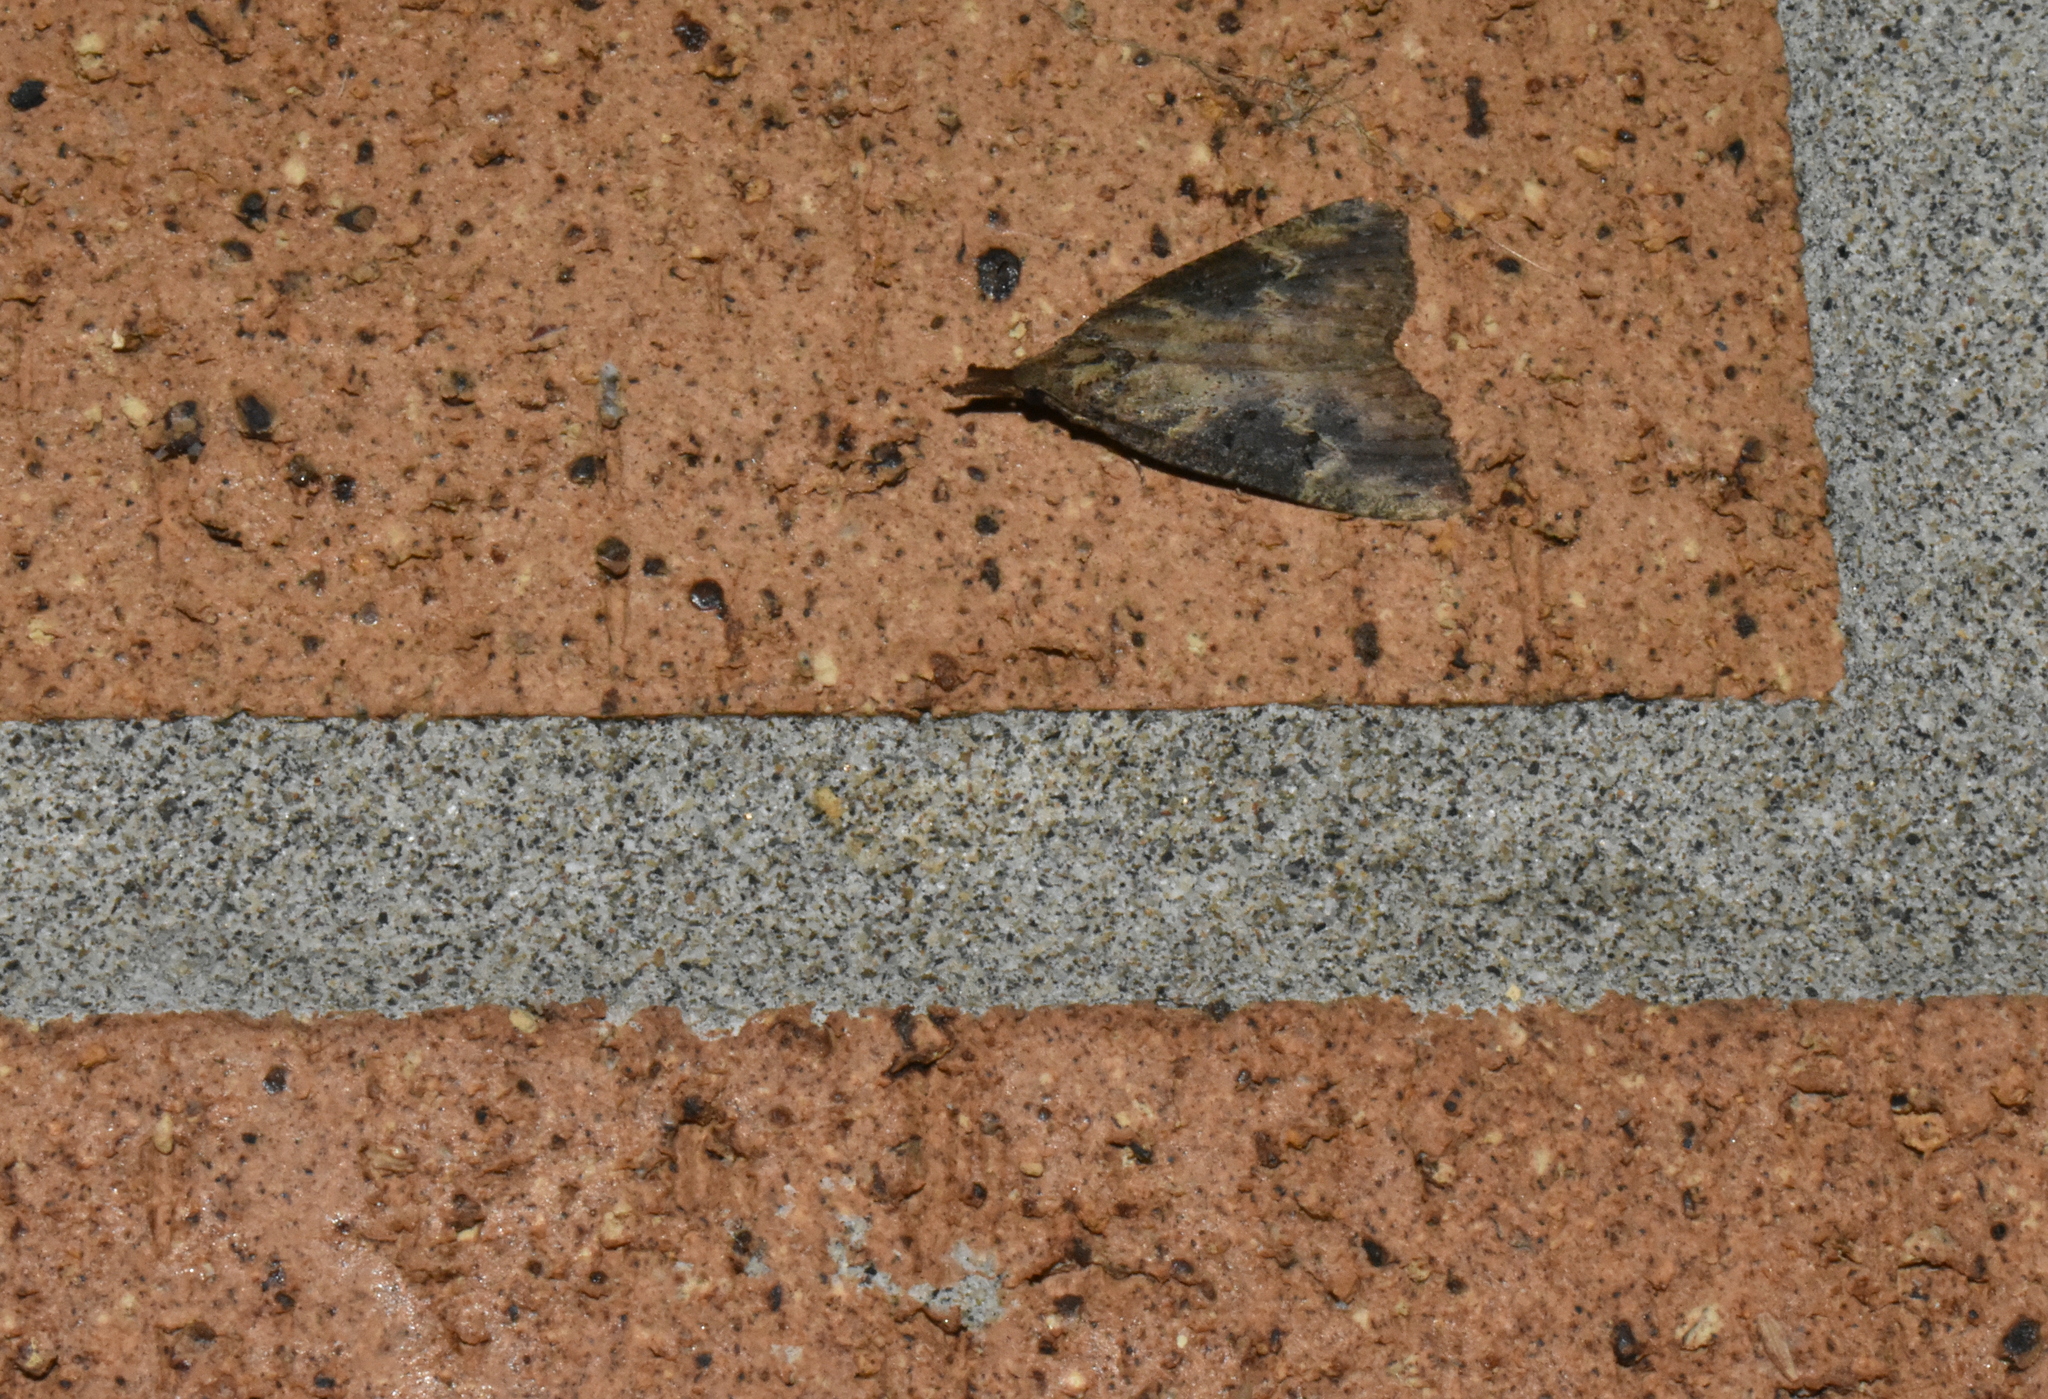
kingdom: Animalia
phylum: Arthropoda
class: Insecta
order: Lepidoptera
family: Erebidae
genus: Hypena
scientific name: Hypena humuli
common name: Hop vine snout
